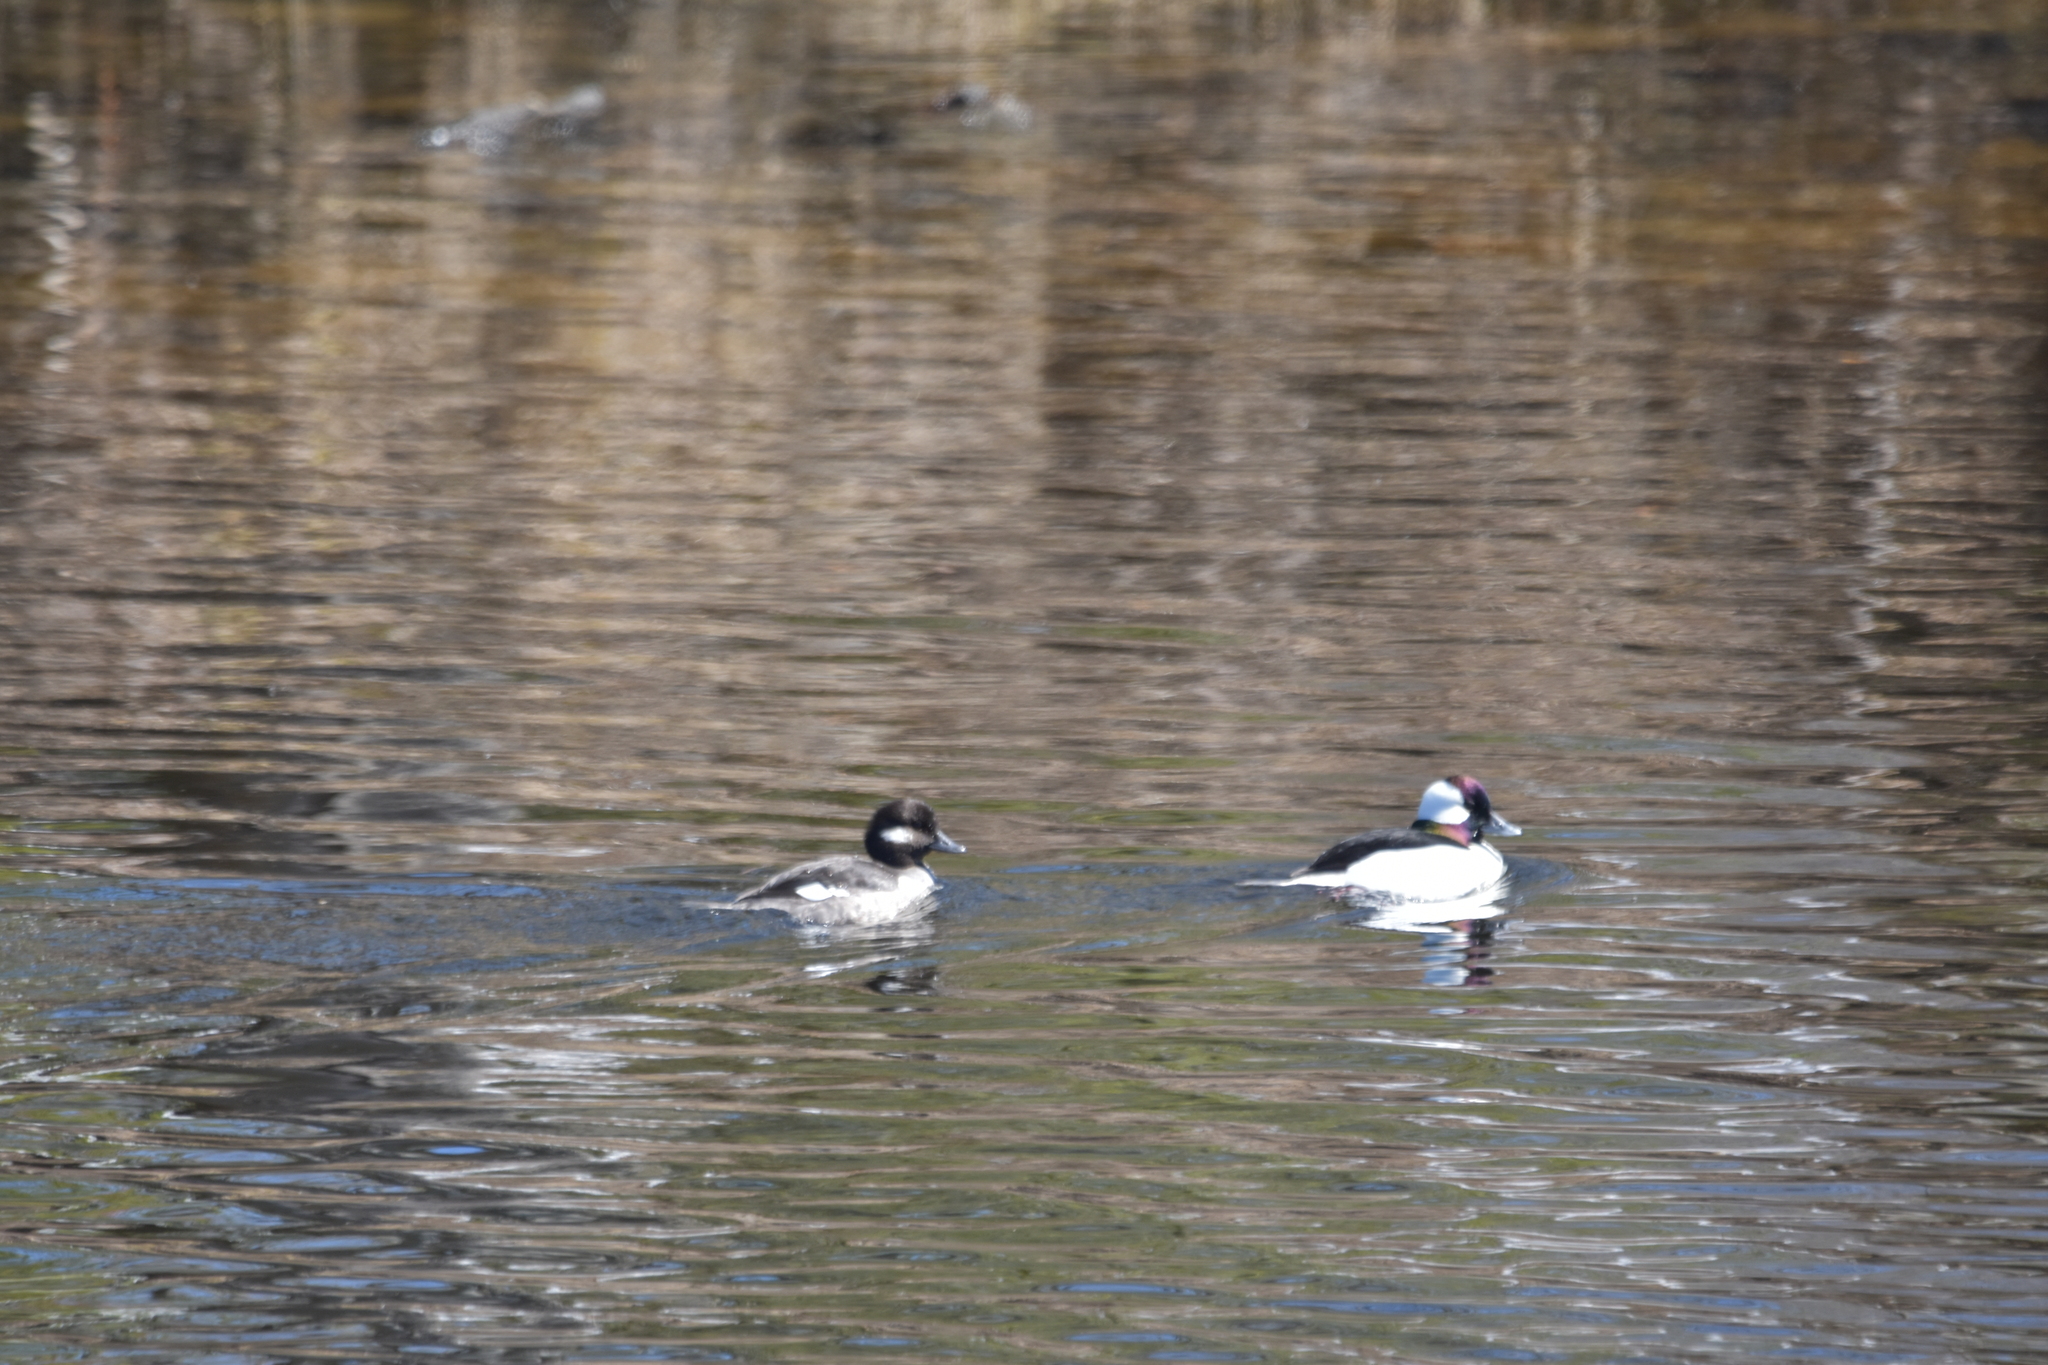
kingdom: Animalia
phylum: Chordata
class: Aves
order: Anseriformes
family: Anatidae
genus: Bucephala
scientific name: Bucephala albeola
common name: Bufflehead
